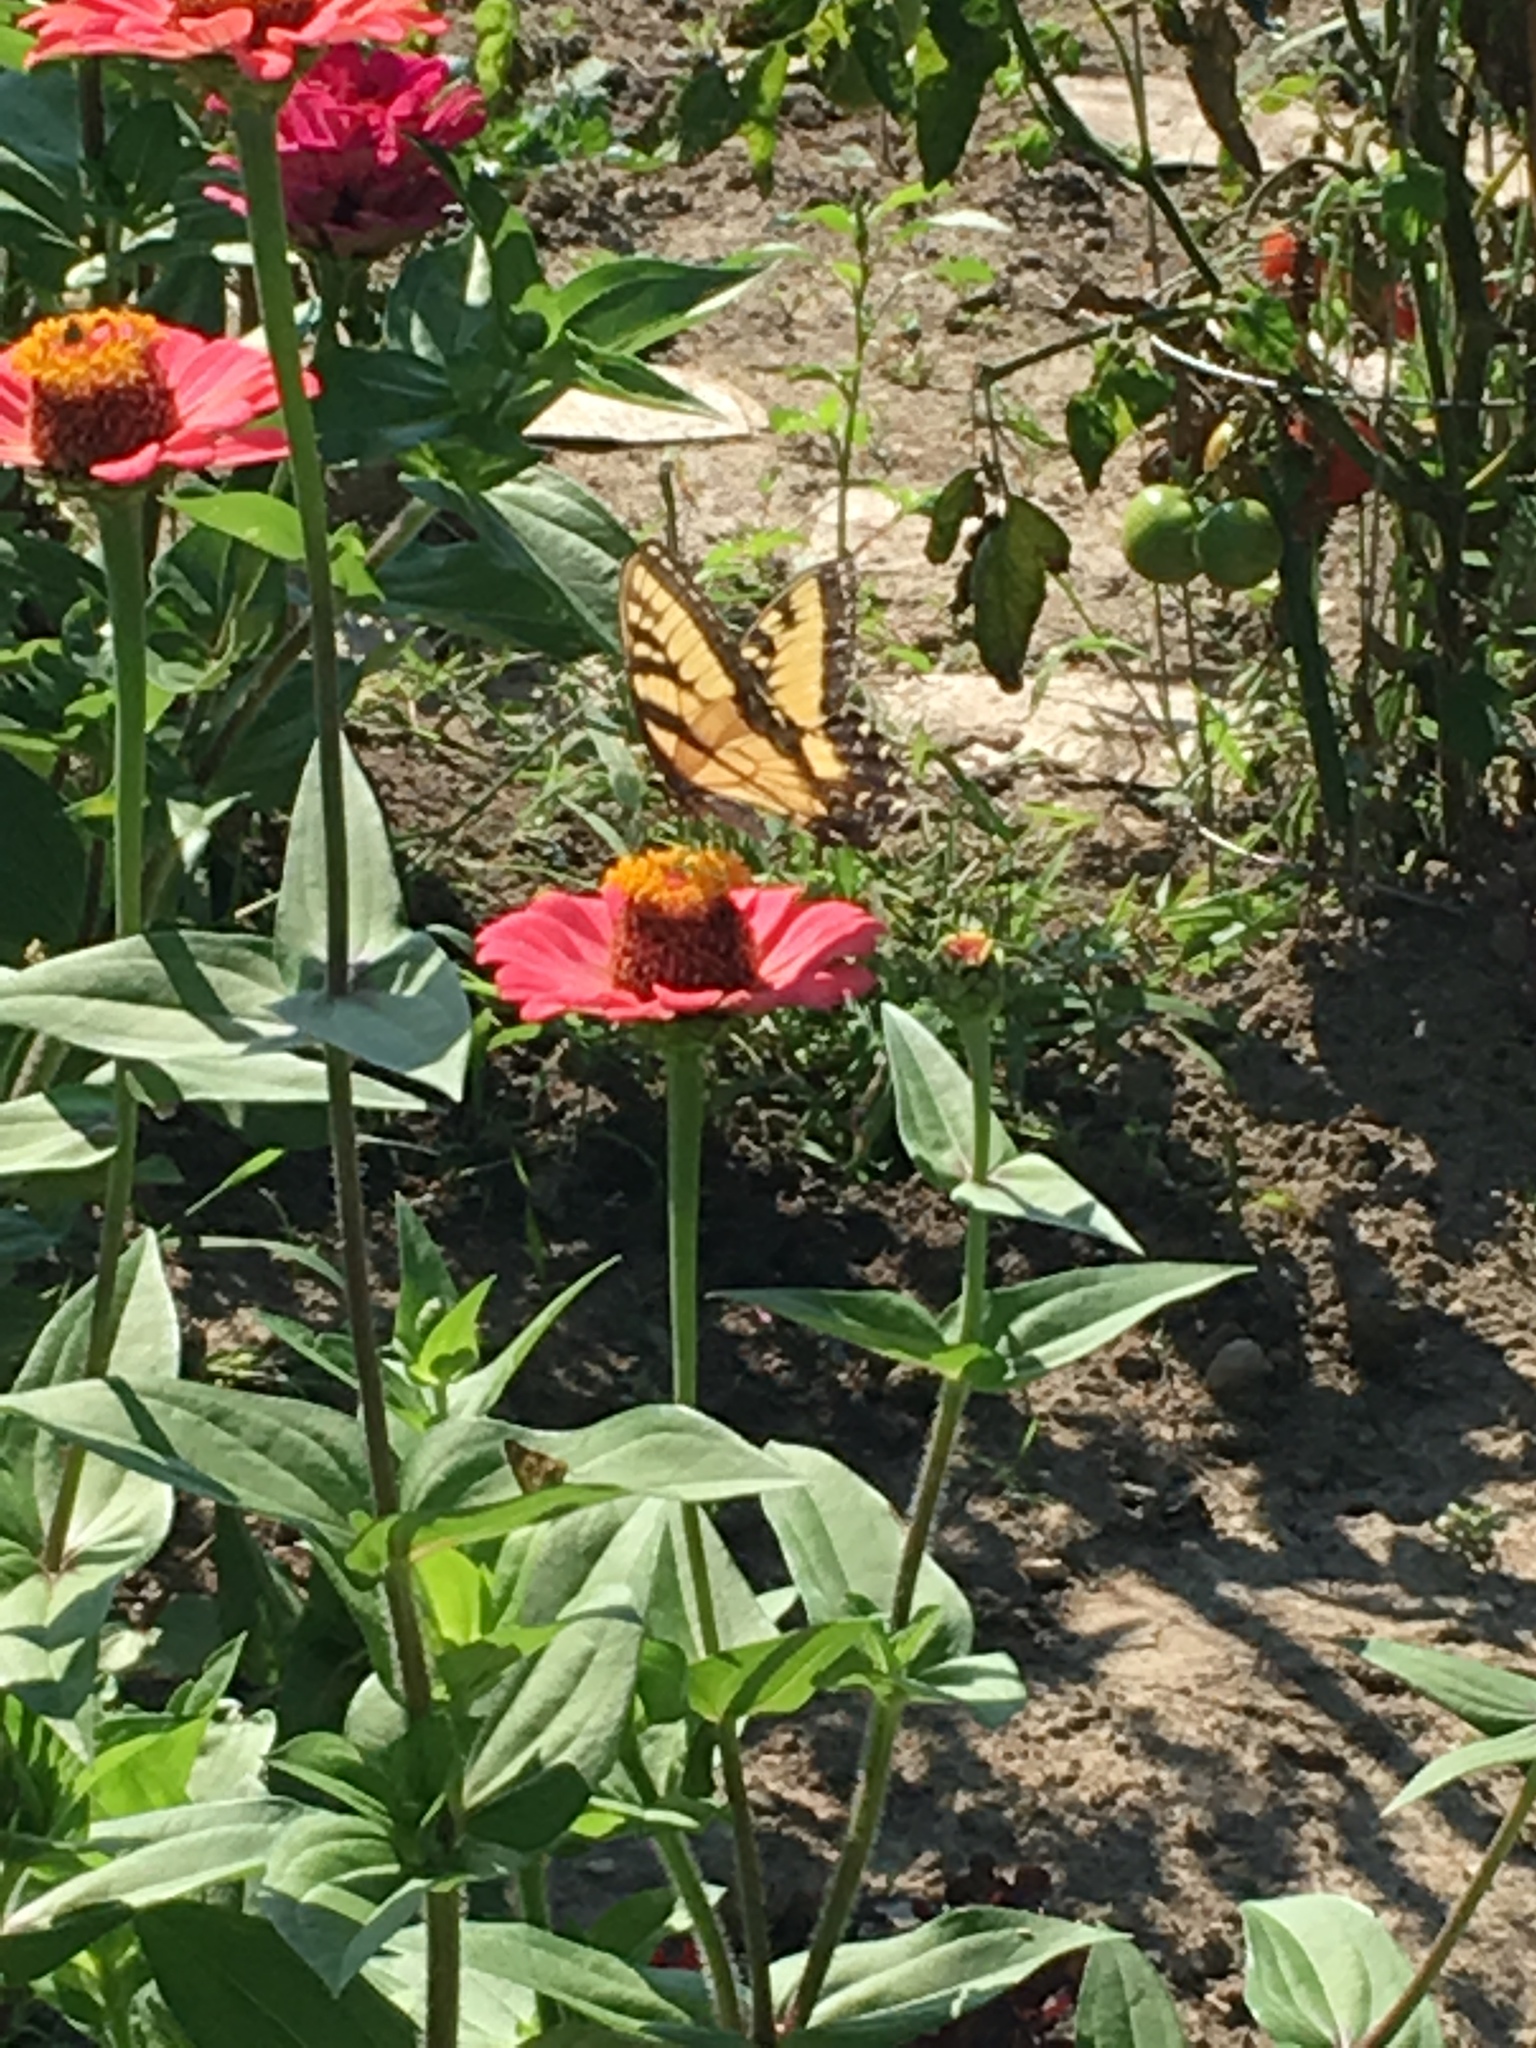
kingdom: Animalia
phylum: Arthropoda
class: Insecta
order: Lepidoptera
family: Papilionidae
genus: Papilio
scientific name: Papilio glaucus
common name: Tiger swallowtail
